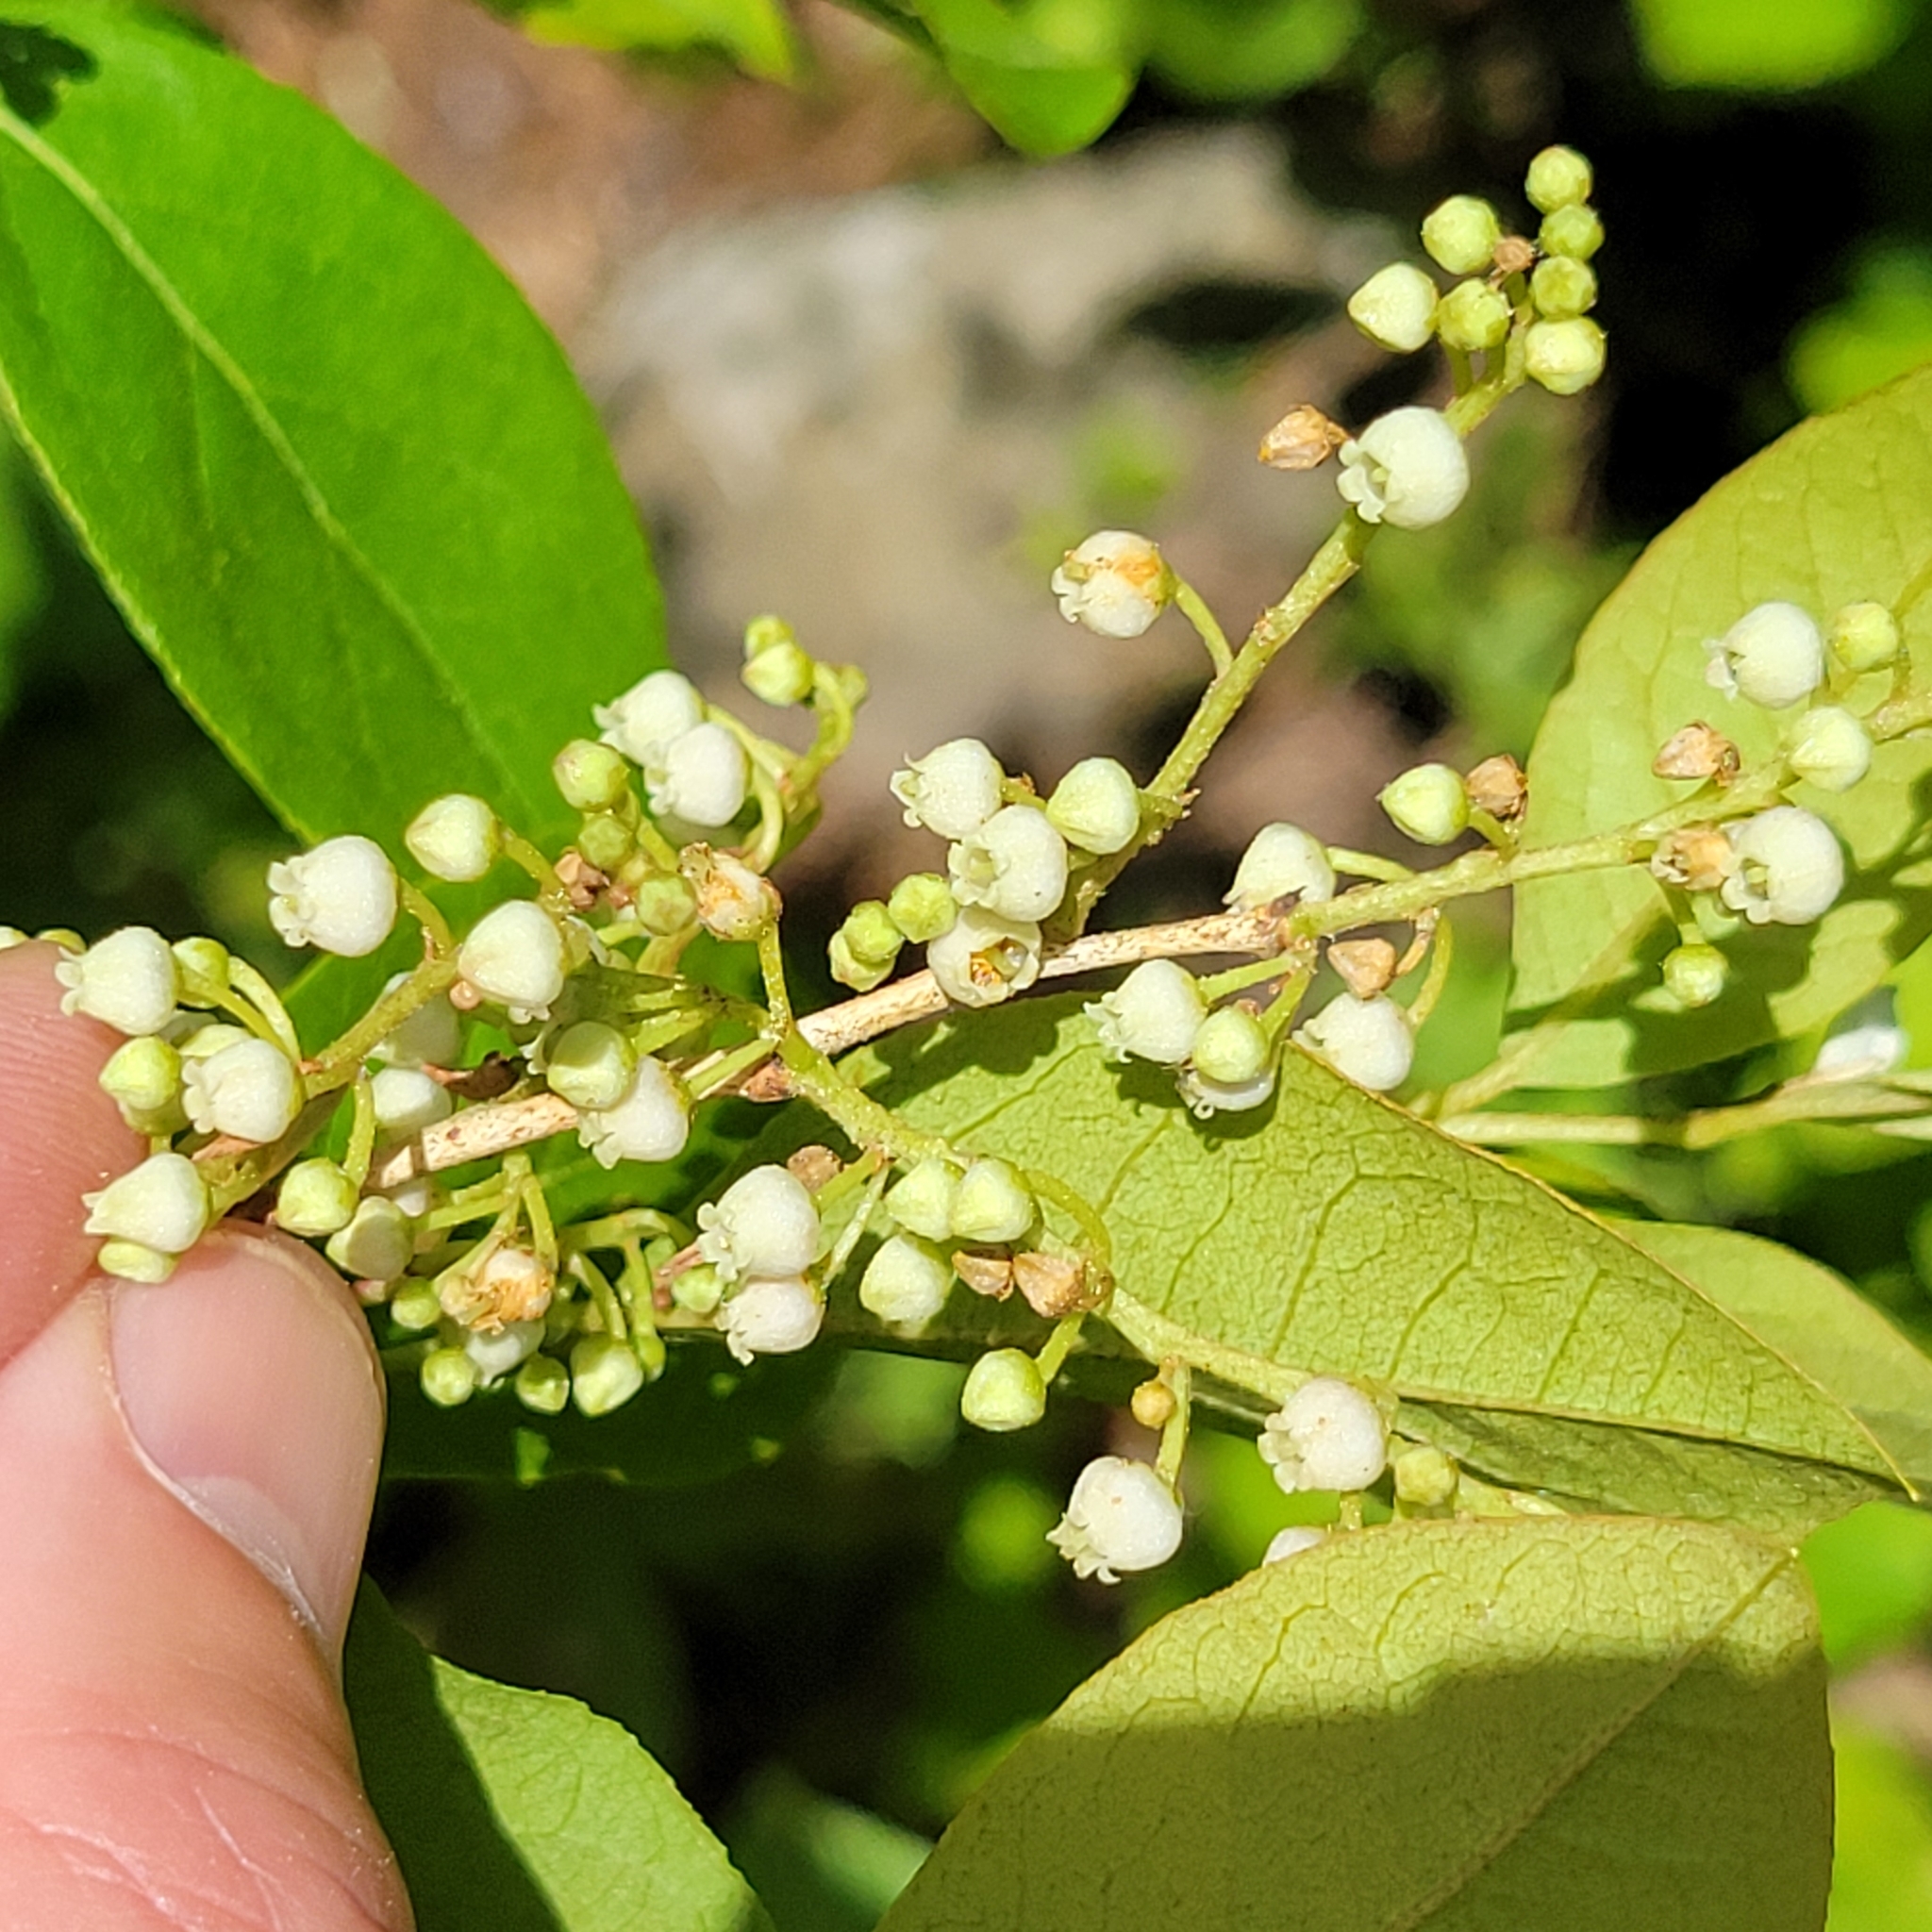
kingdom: Plantae
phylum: Tracheophyta
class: Magnoliopsida
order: Ericales
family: Ericaceae
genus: Lyonia
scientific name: Lyonia ligustrina
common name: Maleberry
